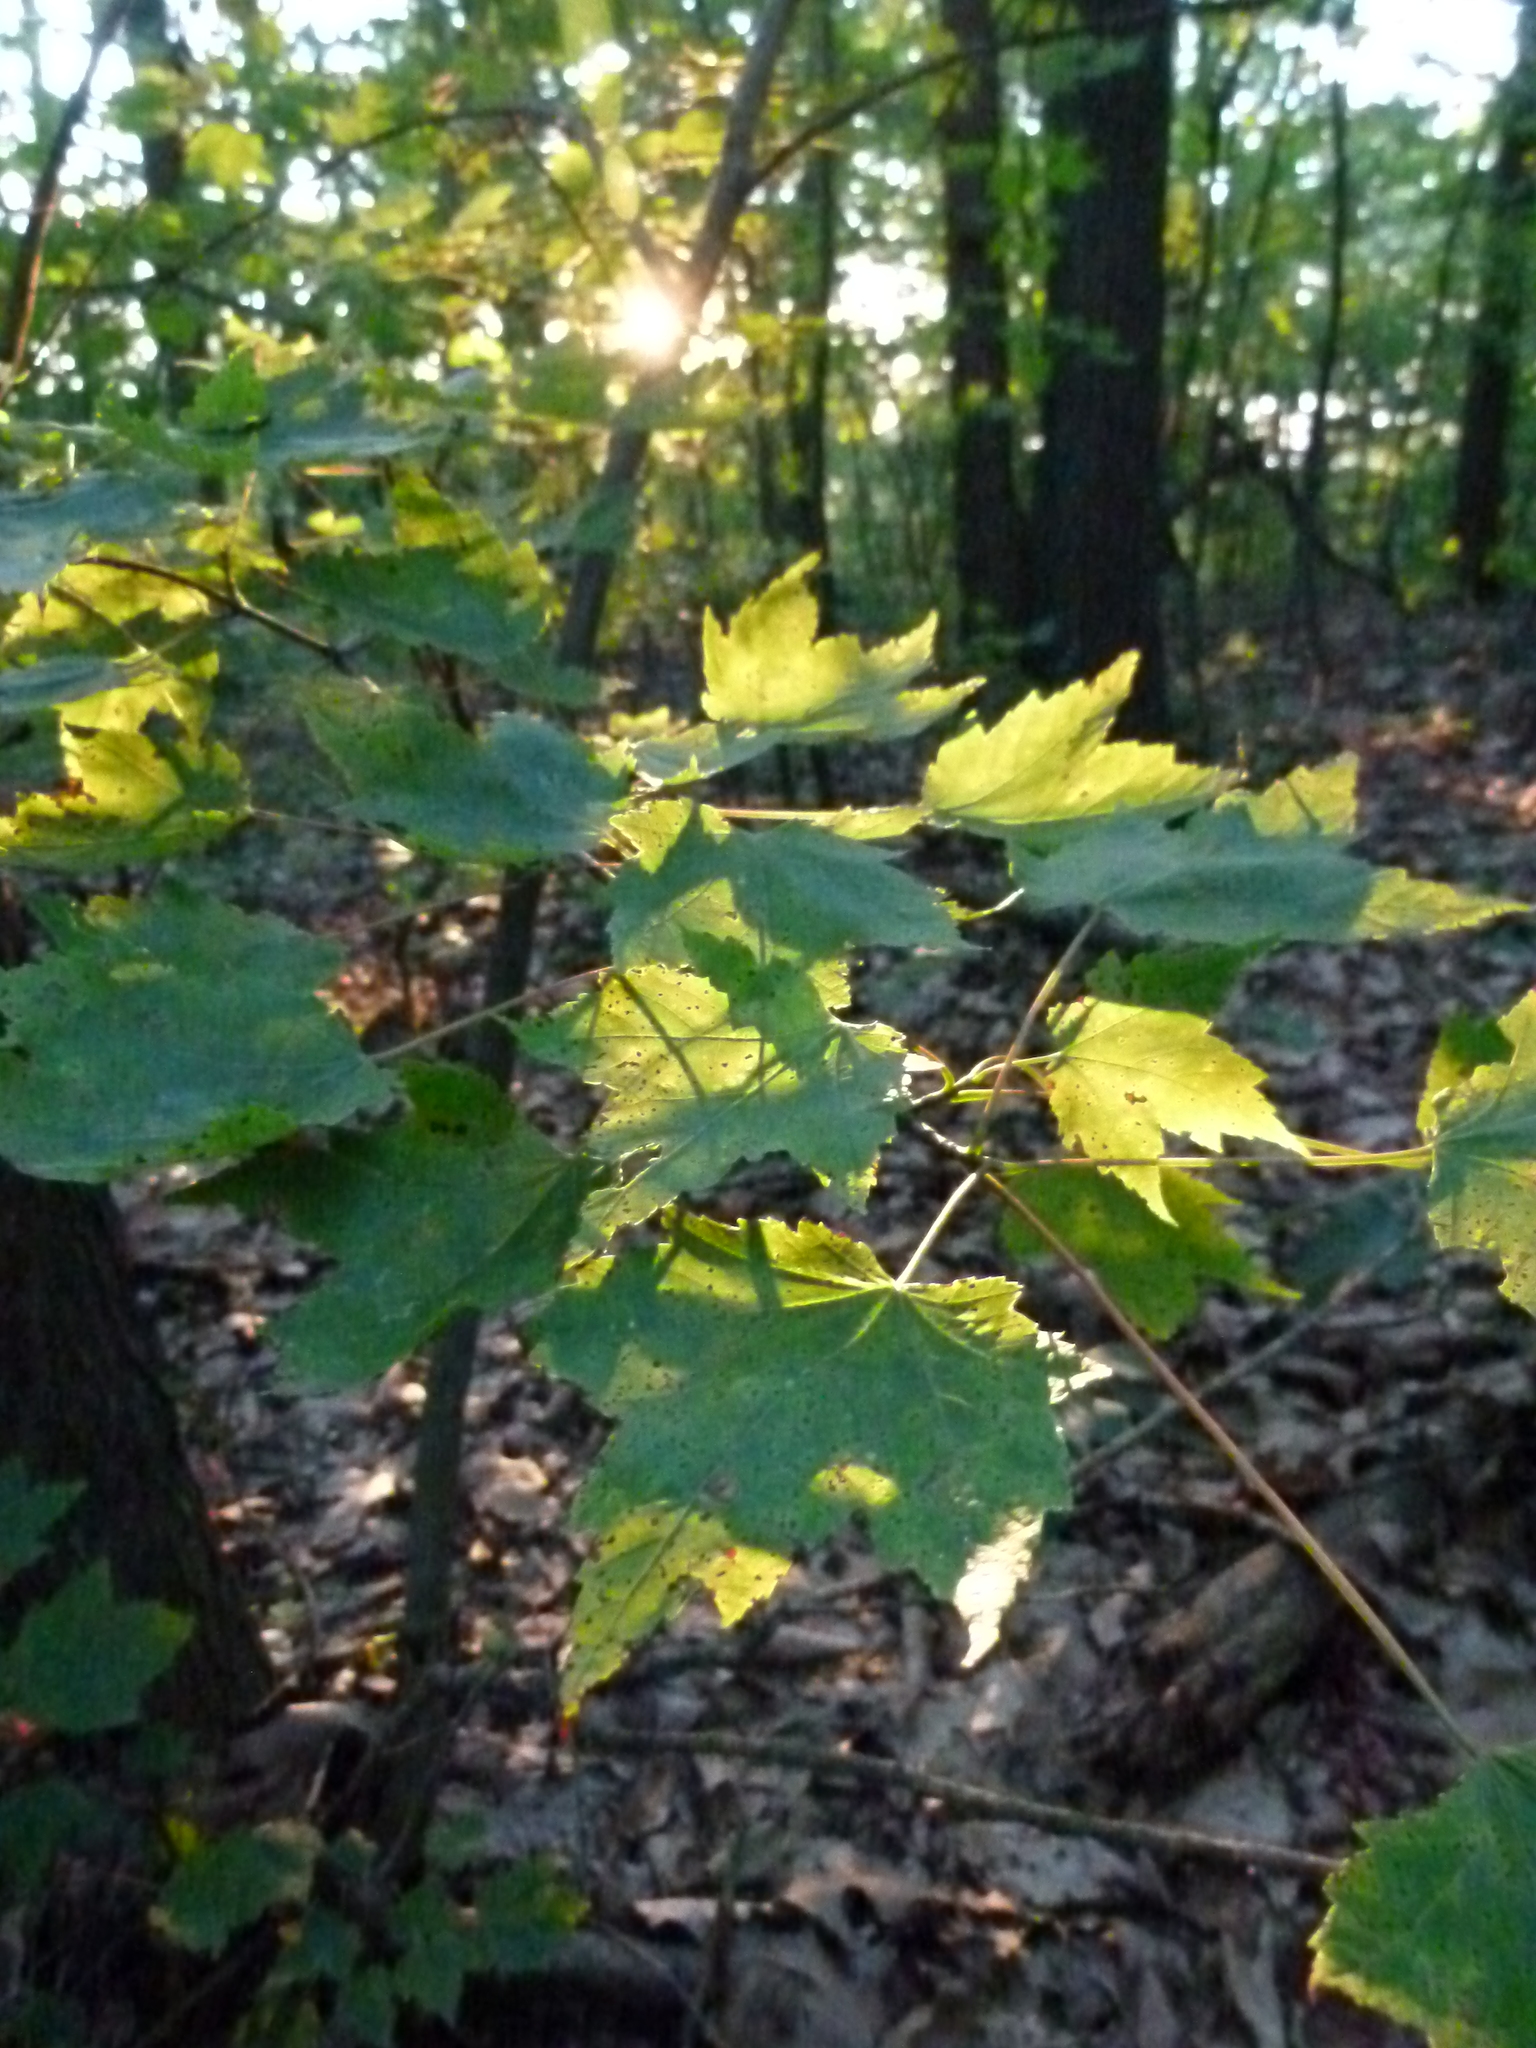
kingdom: Plantae
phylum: Tracheophyta
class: Magnoliopsida
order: Sapindales
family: Sapindaceae
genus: Acer
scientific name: Acer rubrum
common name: Red maple
